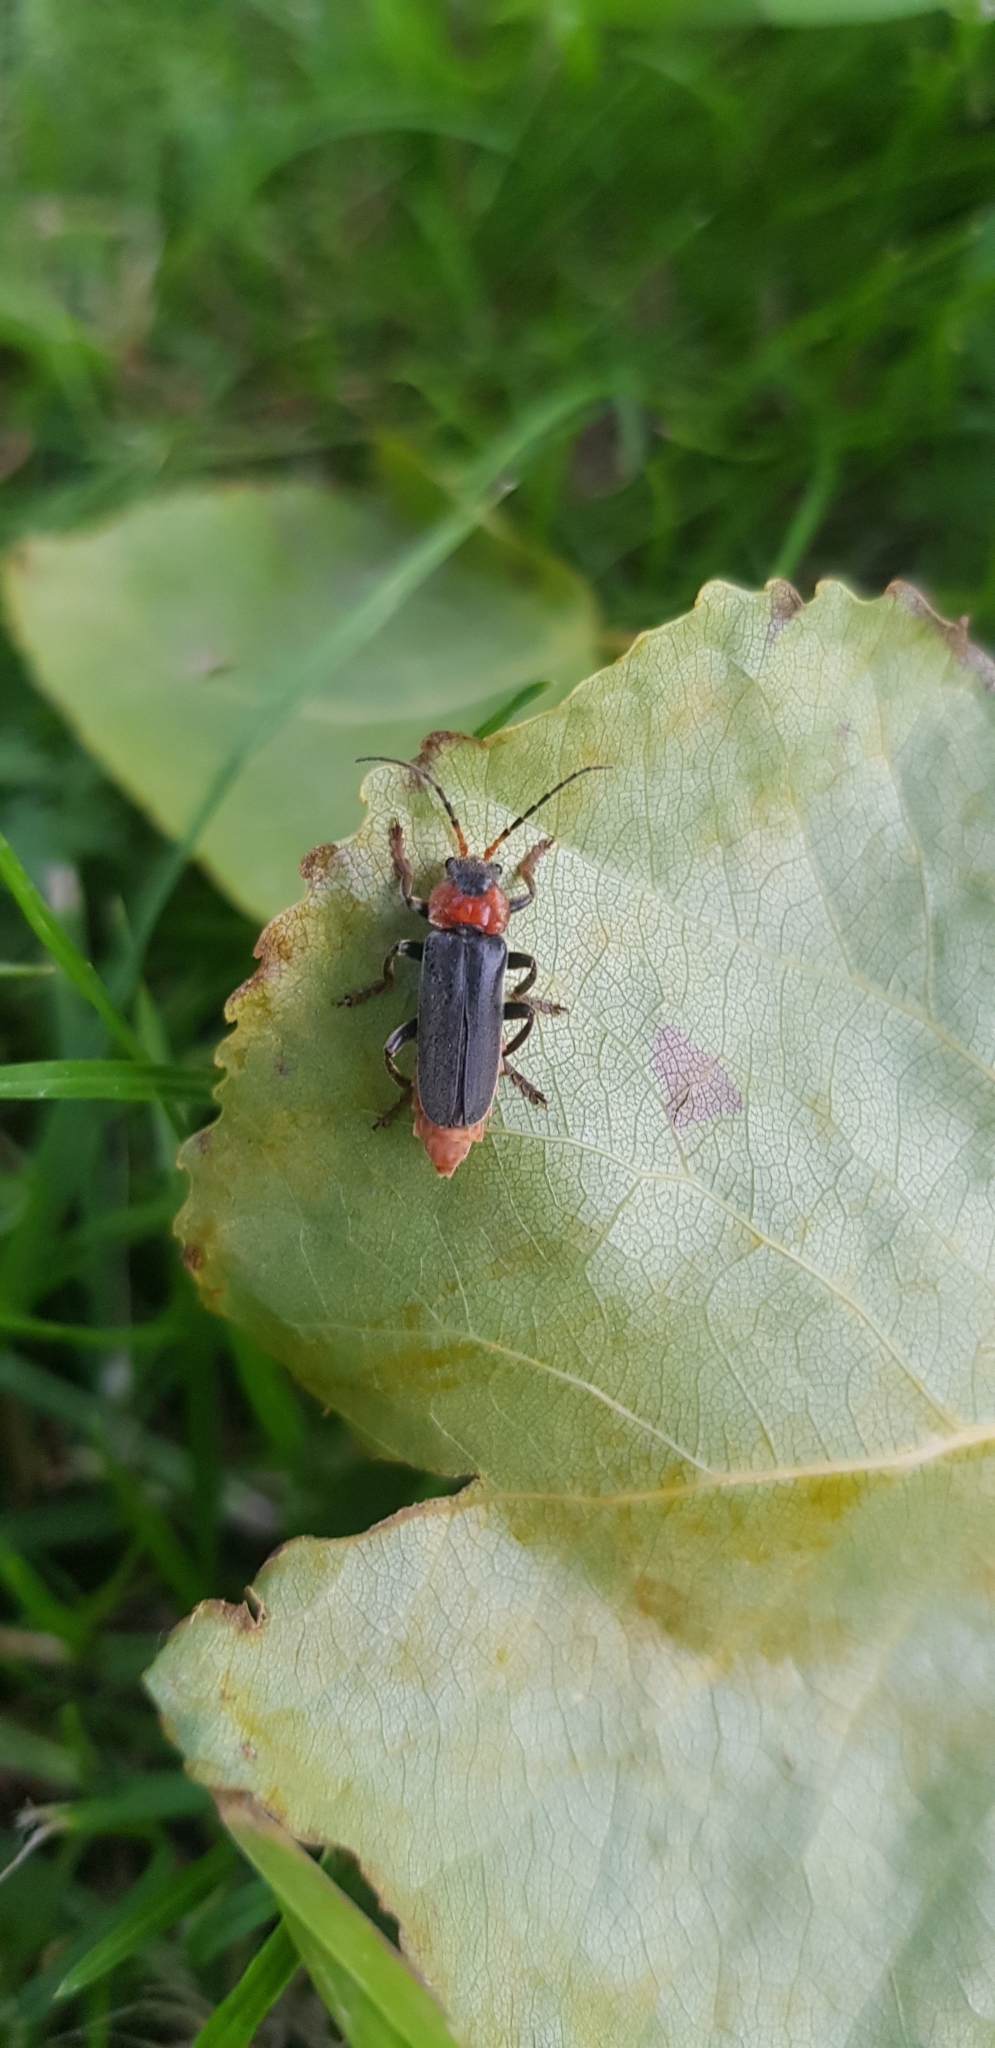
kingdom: Animalia
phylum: Arthropoda
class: Insecta
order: Coleoptera
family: Cantharidae
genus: Cantharis
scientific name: Cantharis fusca
